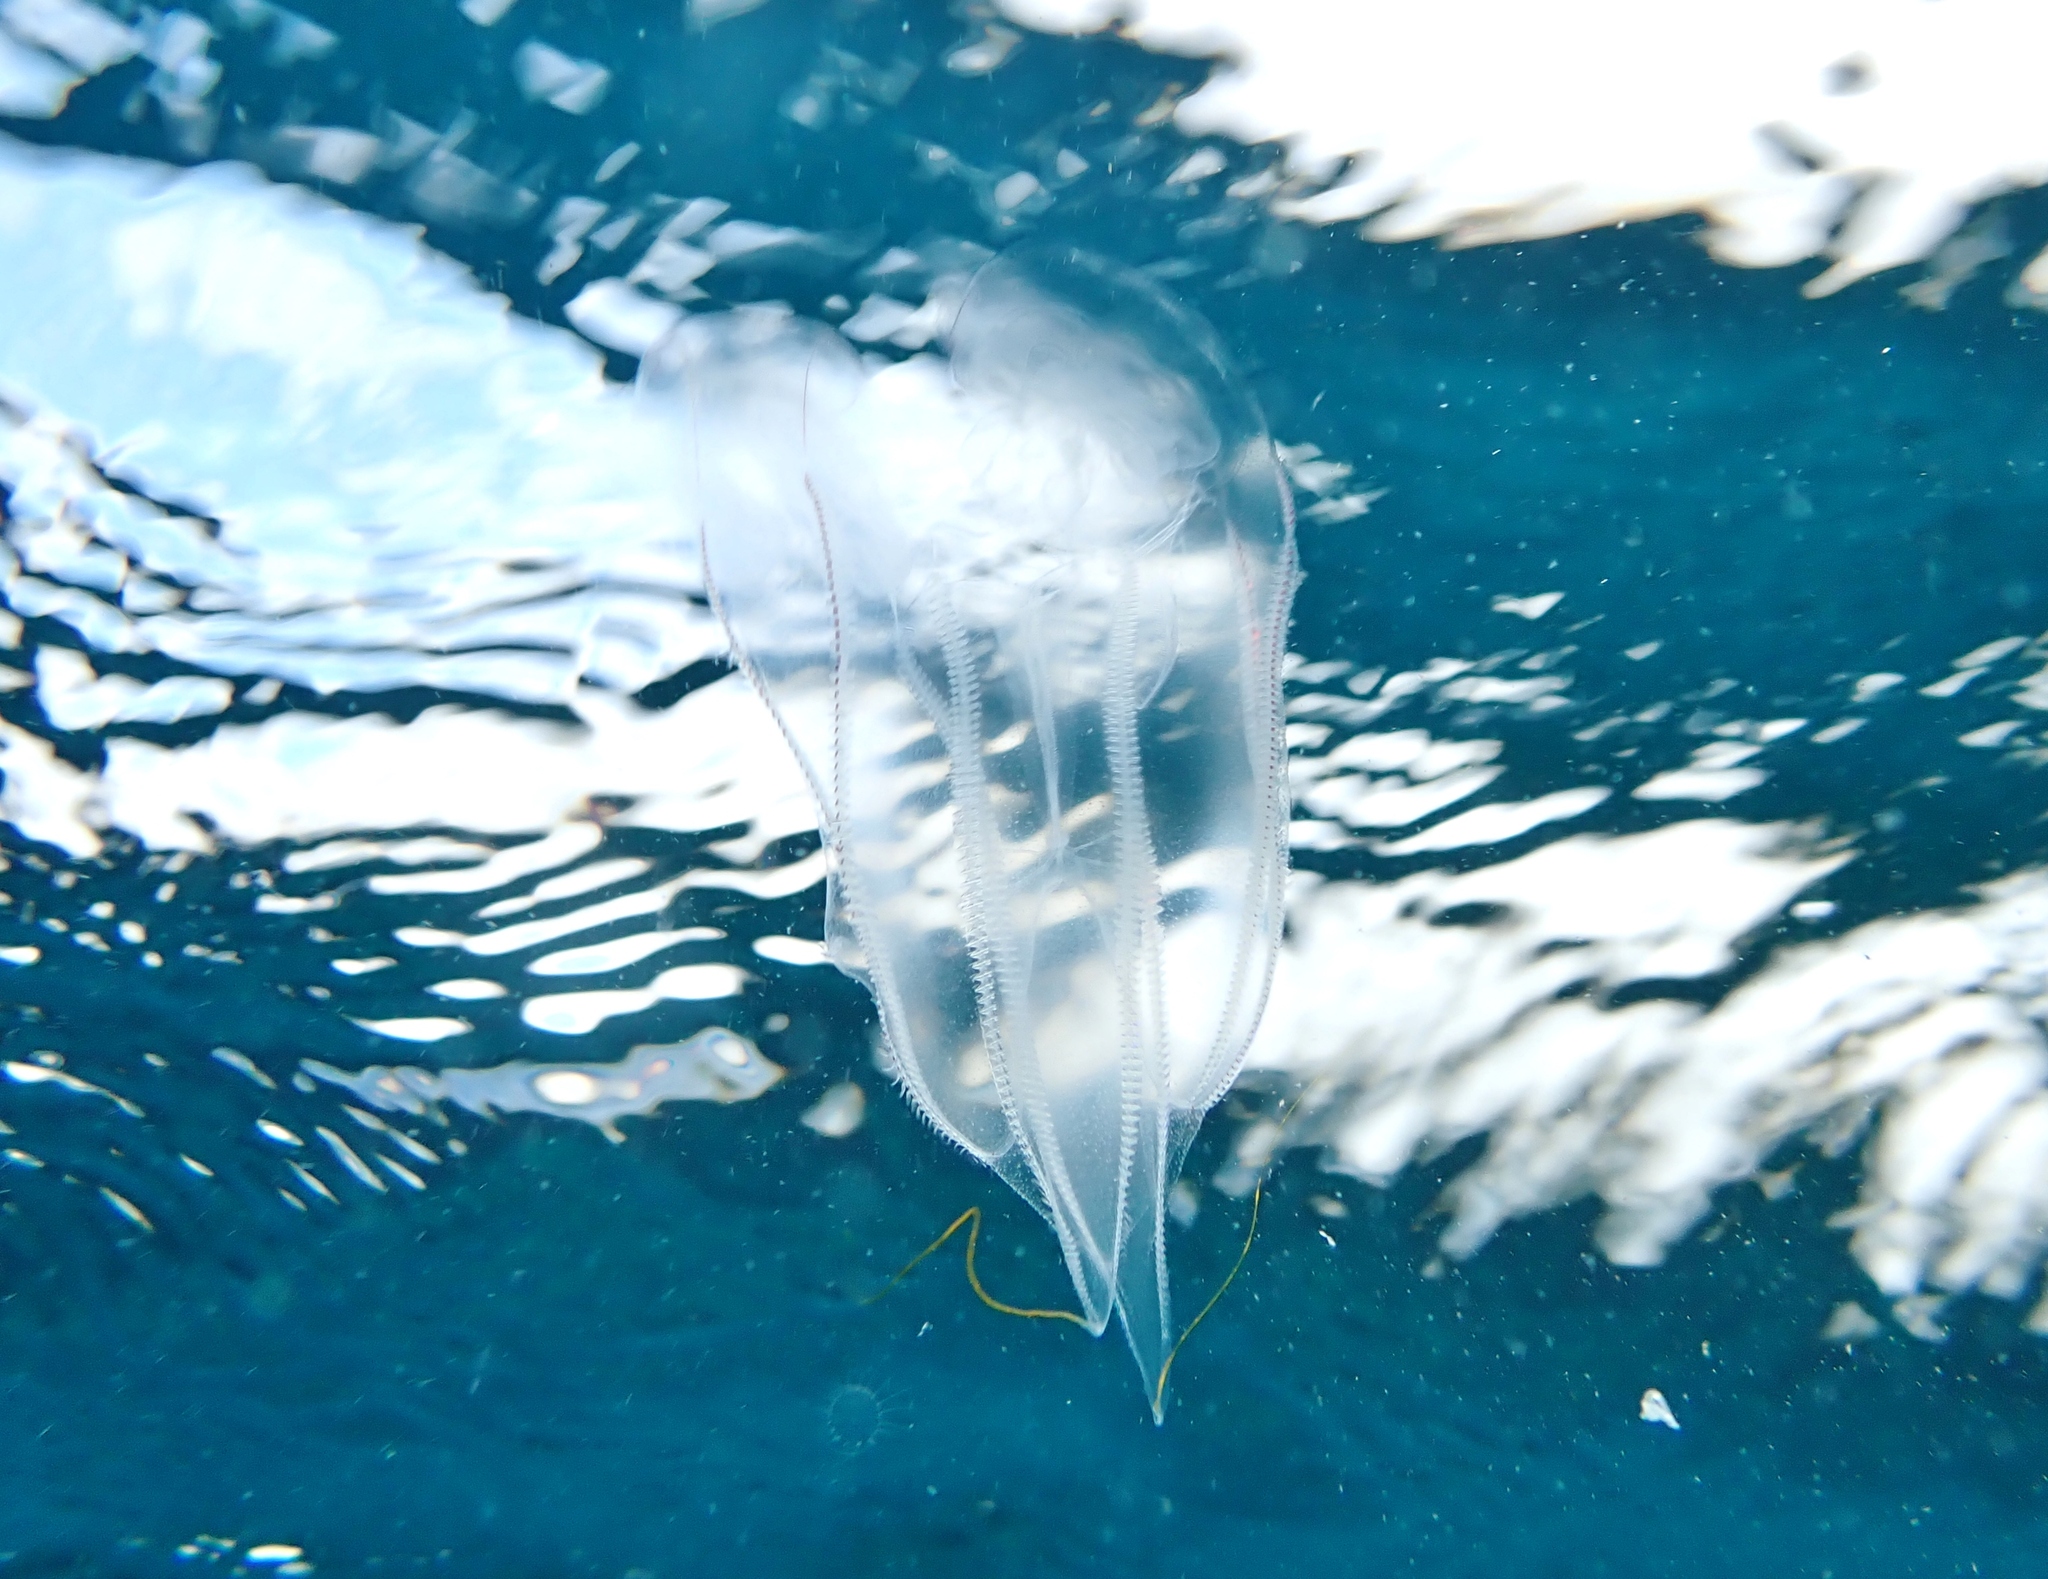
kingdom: Animalia
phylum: Ctenophora
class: Tentaculata
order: Lobata
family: Eurhamphaeidae
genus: Eurhamphaea
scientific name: Eurhamphaea vexilligera
